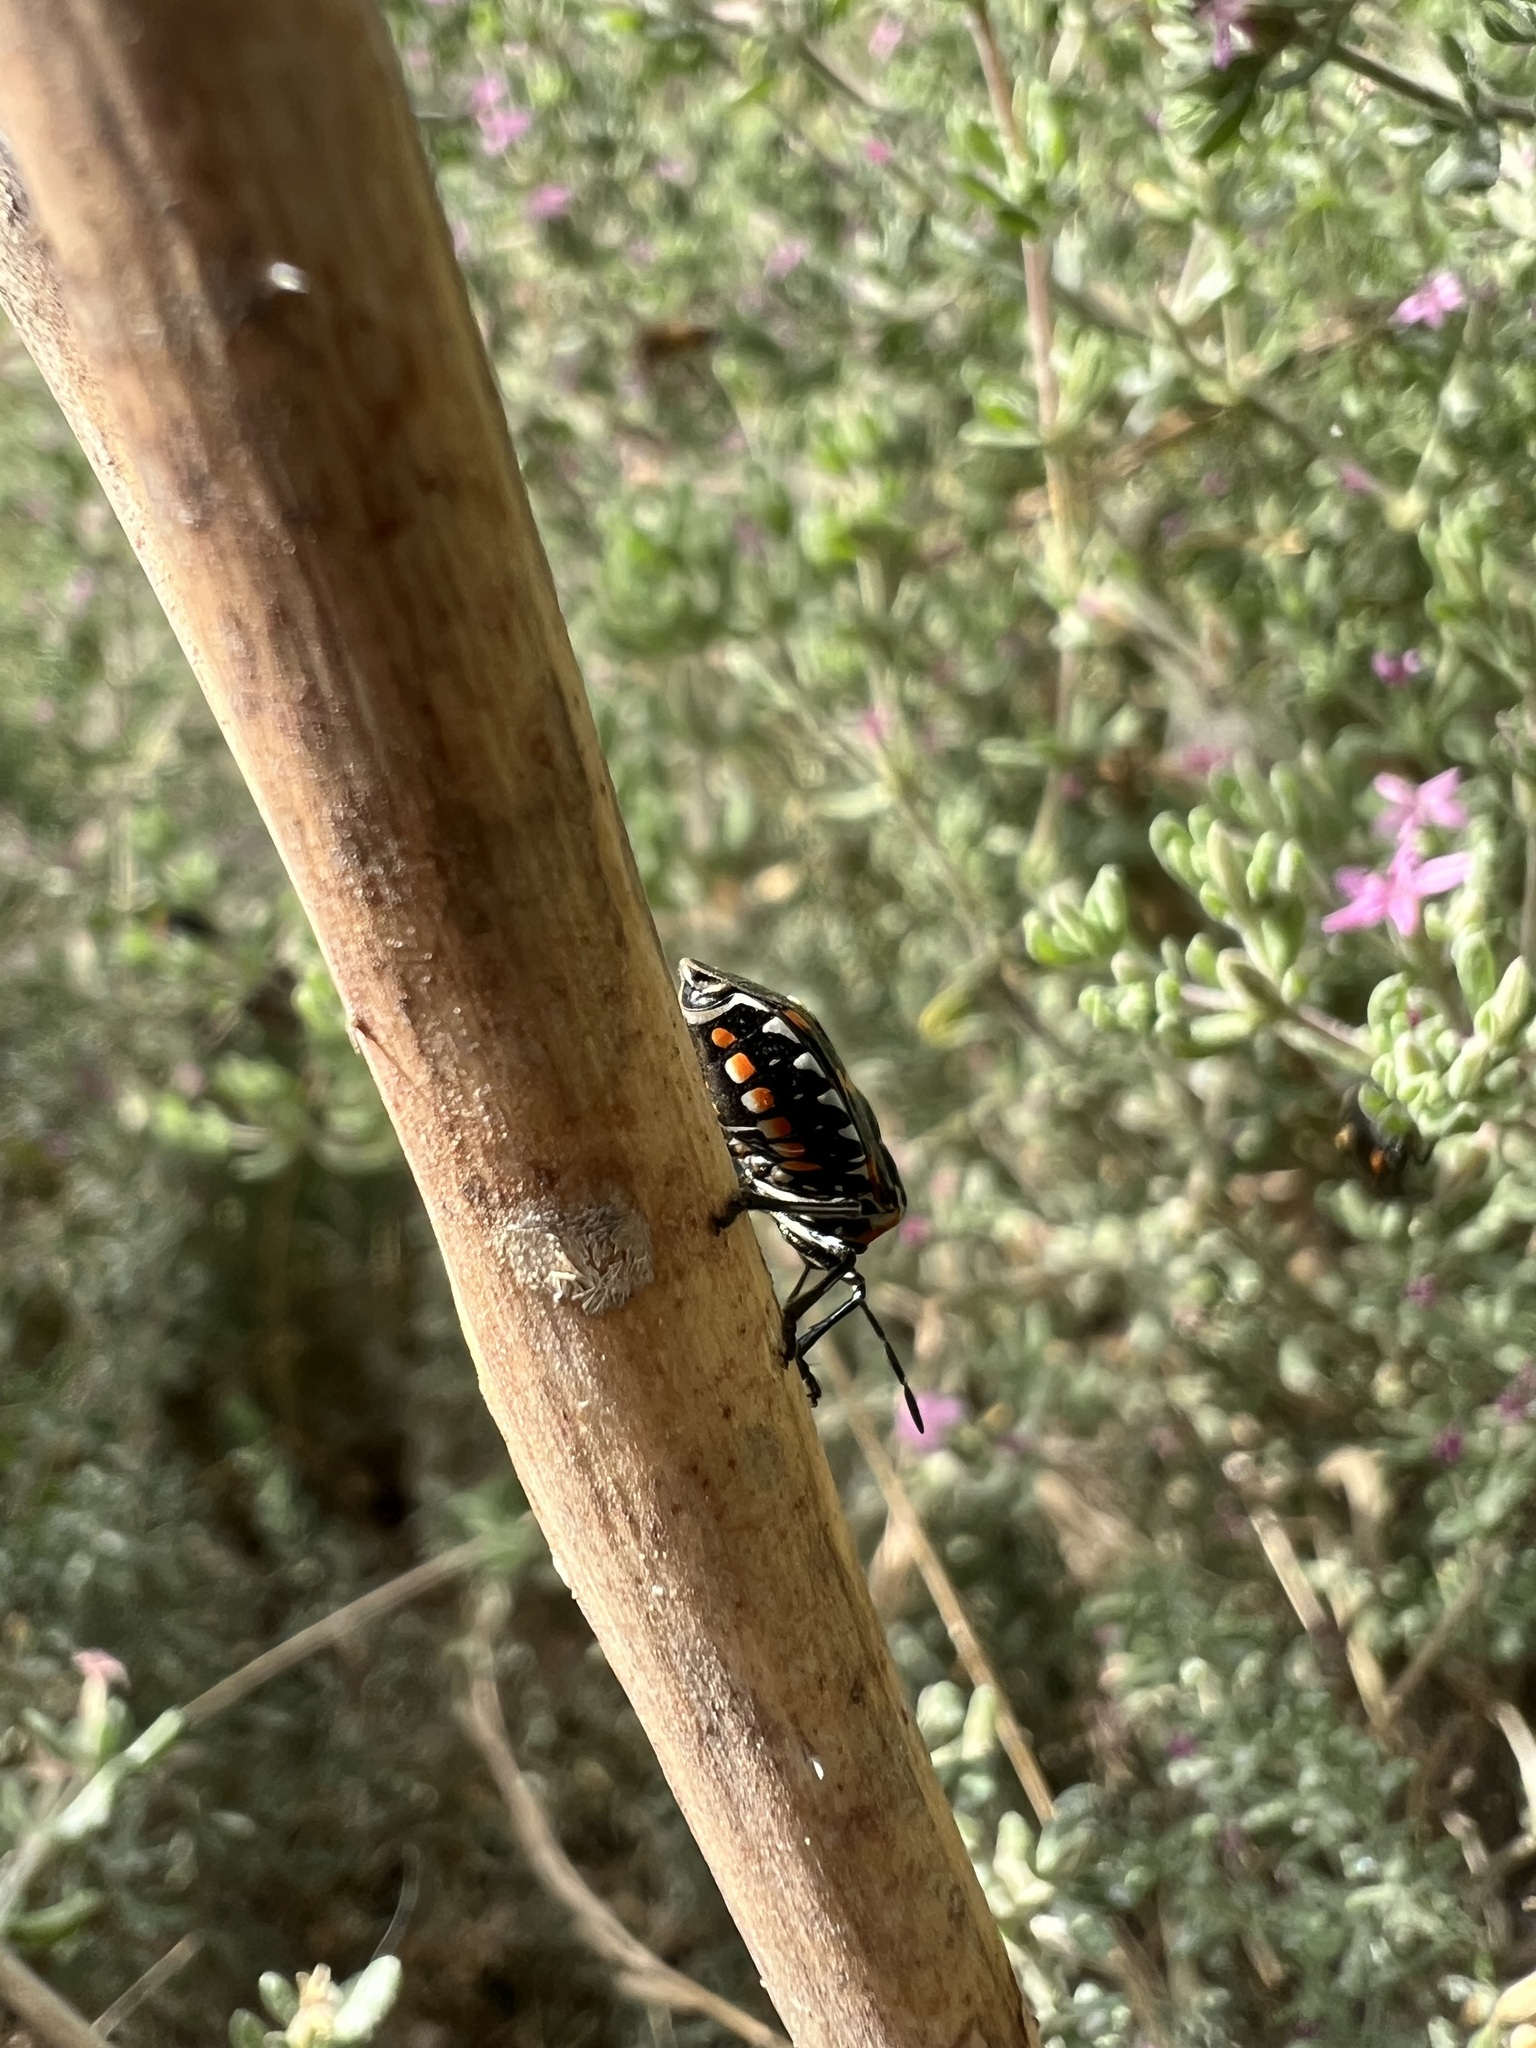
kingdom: Animalia
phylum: Arthropoda
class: Insecta
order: Hemiptera
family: Pentatomidae
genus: Murgantia
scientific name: Murgantia histrionica
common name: Harlequin bug
